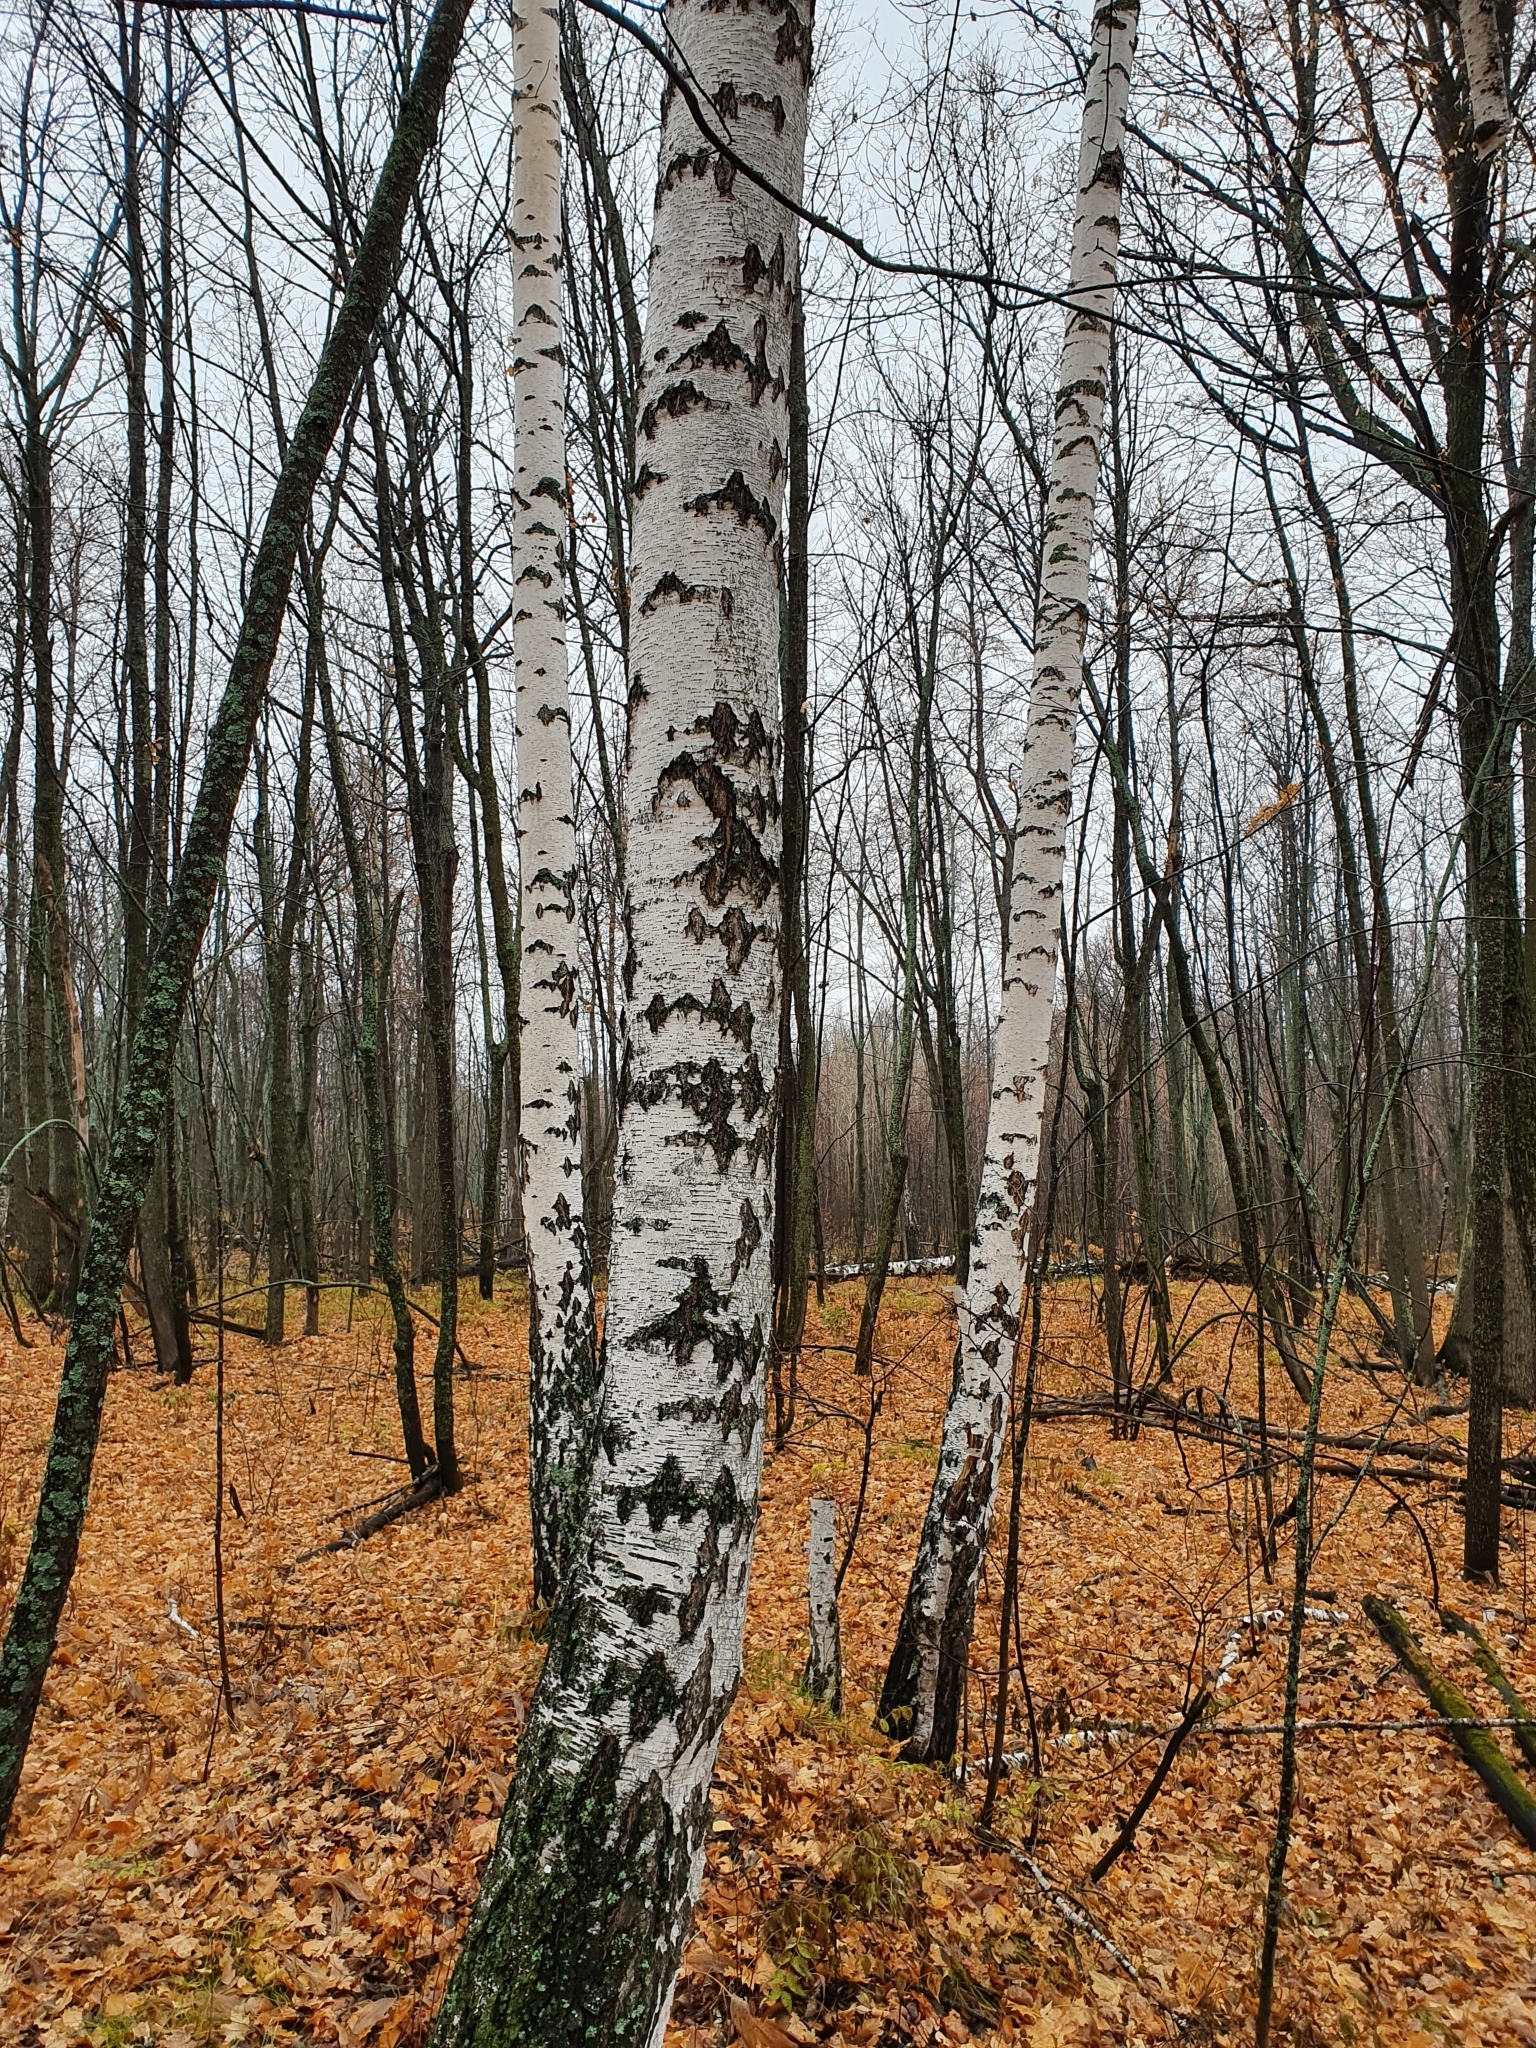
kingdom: Plantae
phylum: Tracheophyta
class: Magnoliopsida
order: Fagales
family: Betulaceae
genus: Betula
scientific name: Betula pendula
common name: Silver birch
